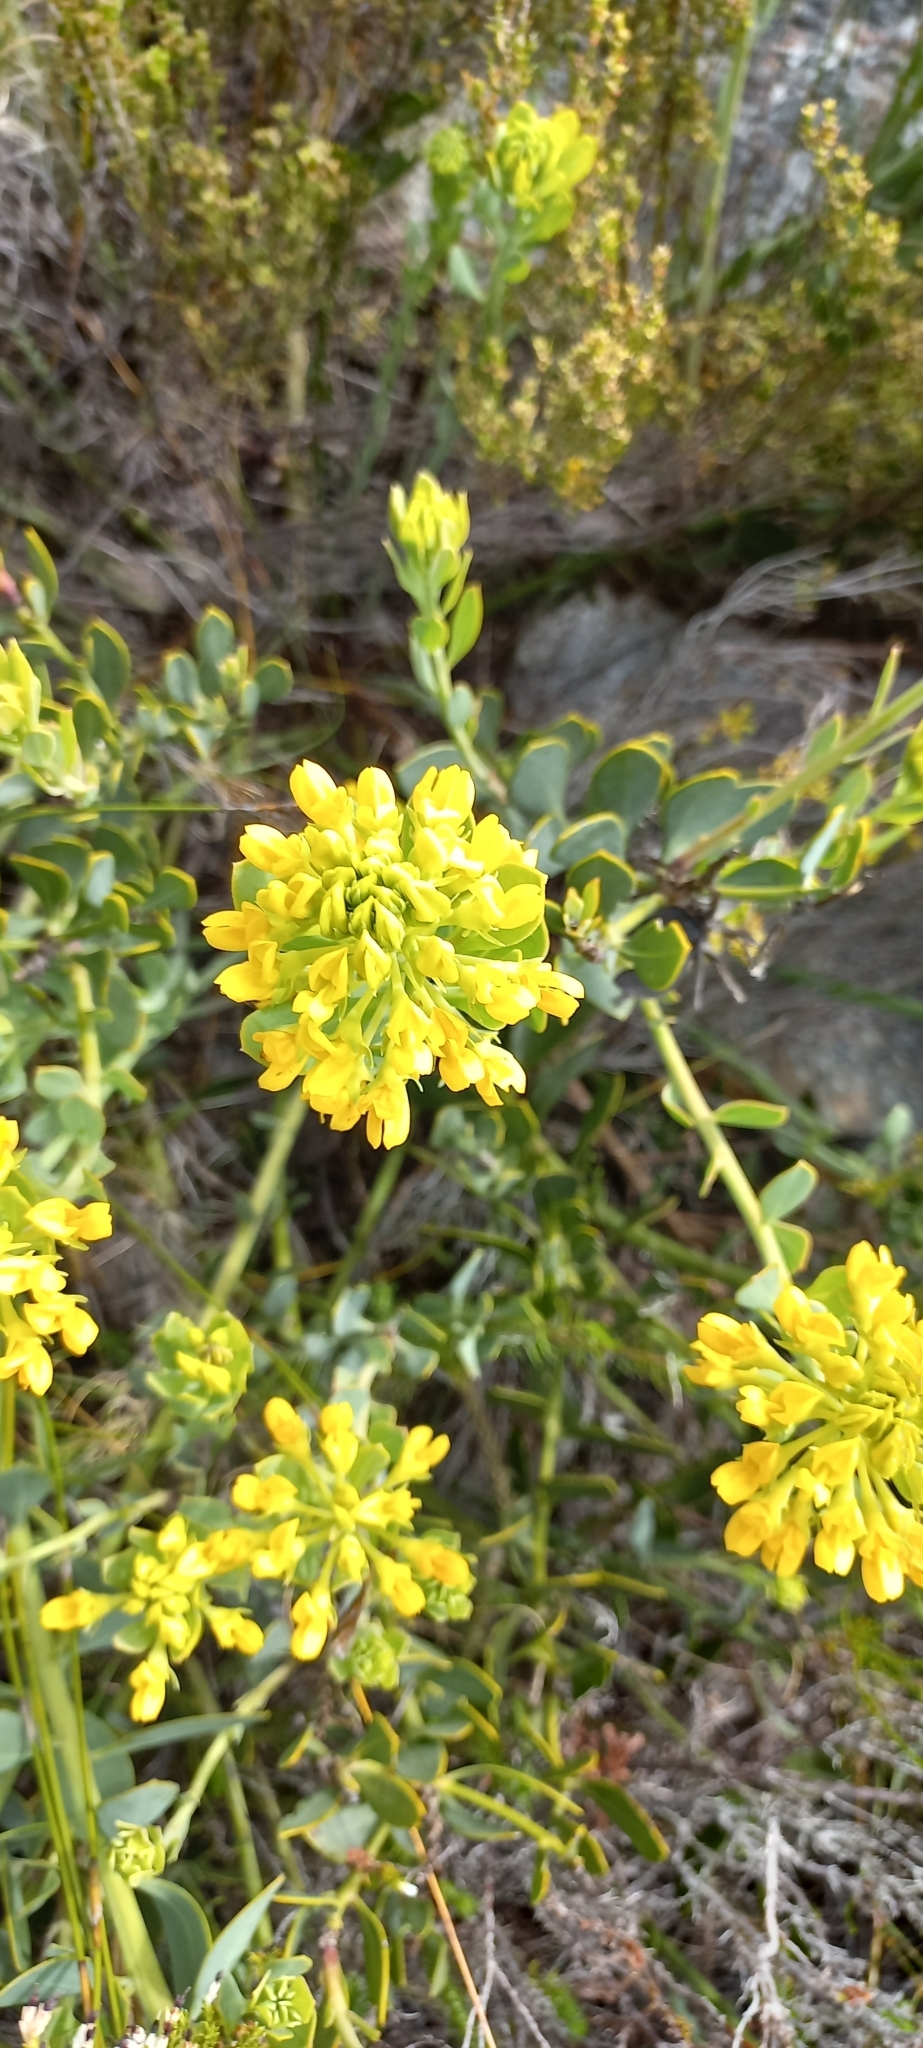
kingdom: Plantae
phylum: Tracheophyta
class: Magnoliopsida
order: Fabales
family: Fabaceae
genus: Rafnia
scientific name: Rafnia capensis
